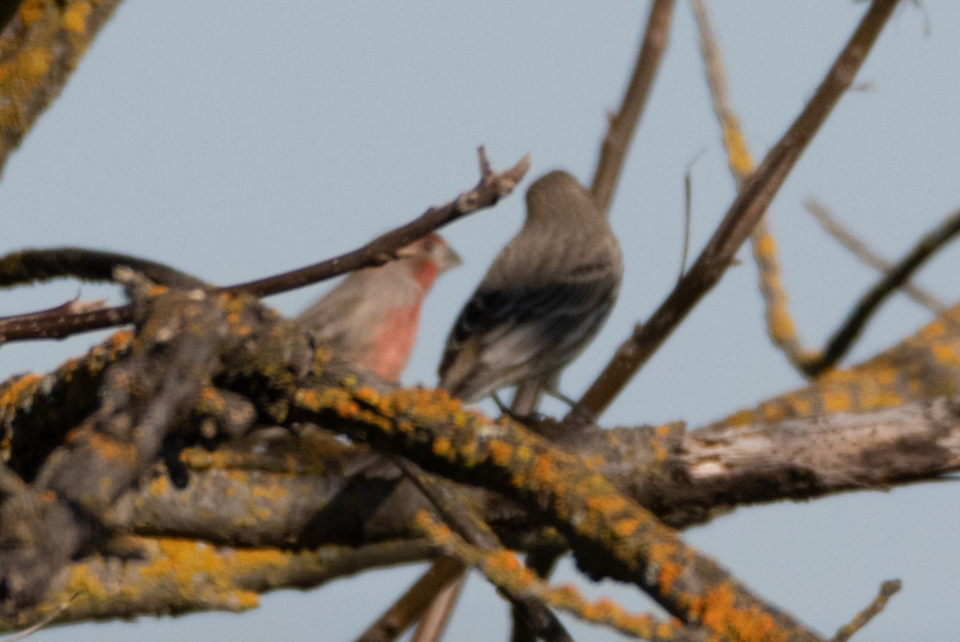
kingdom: Animalia
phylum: Chordata
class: Aves
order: Passeriformes
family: Fringillidae
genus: Haemorhous
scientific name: Haemorhous mexicanus
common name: House finch
